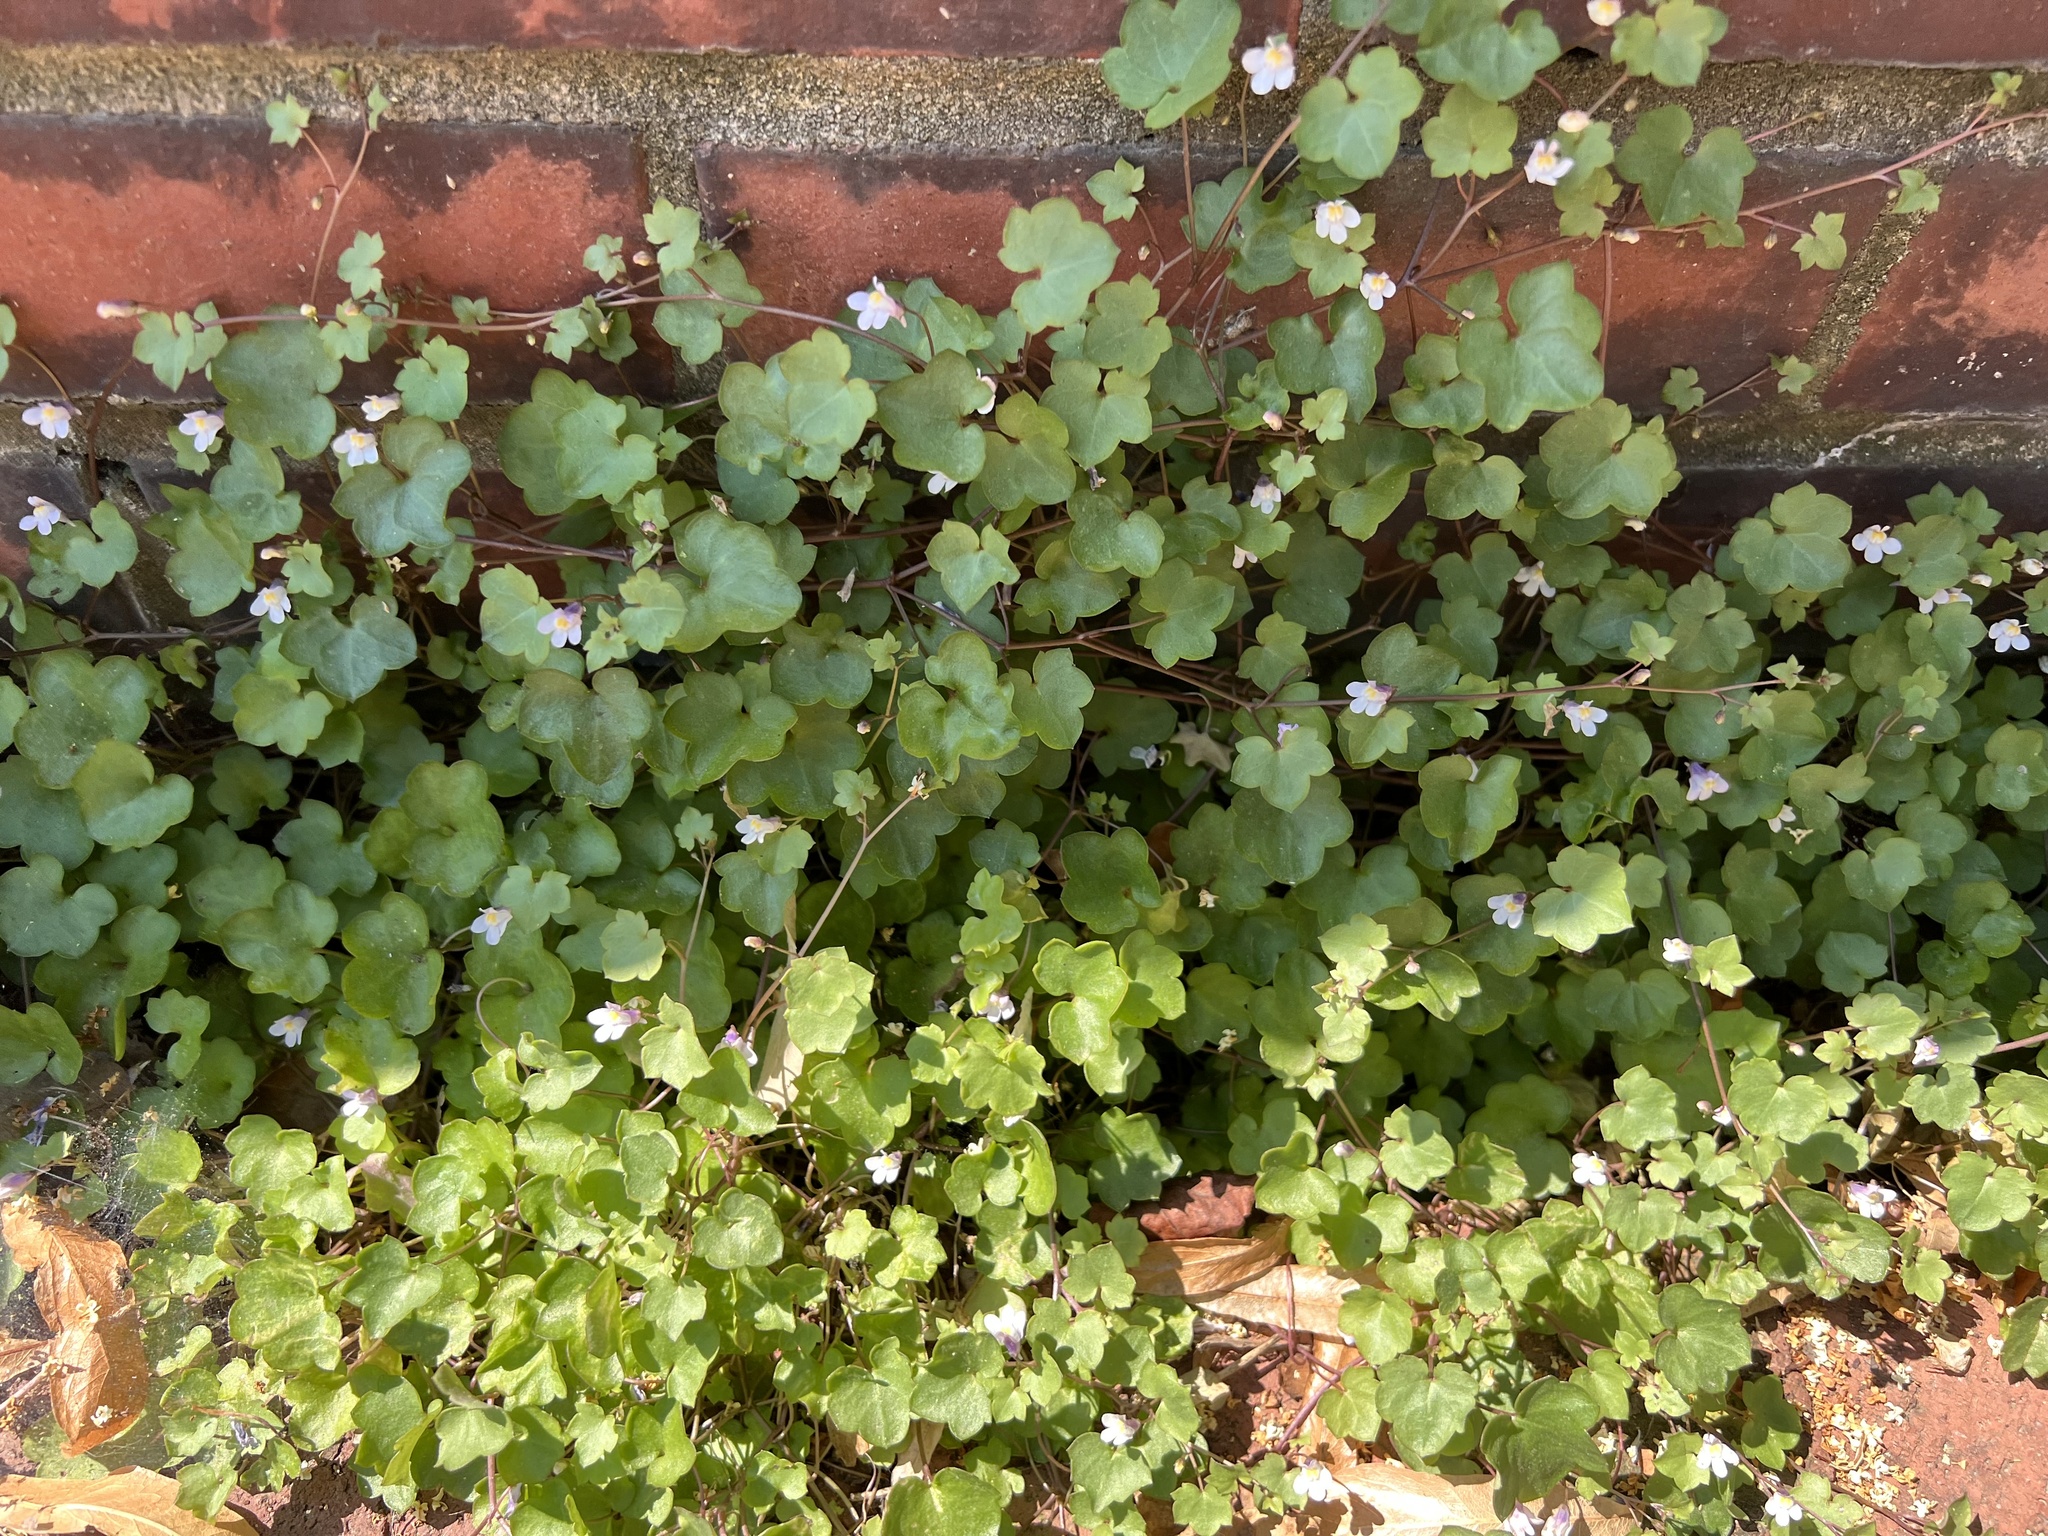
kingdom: Plantae
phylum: Tracheophyta
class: Magnoliopsida
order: Lamiales
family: Plantaginaceae
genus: Cymbalaria
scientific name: Cymbalaria muralis
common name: Ivy-leaved toadflax
